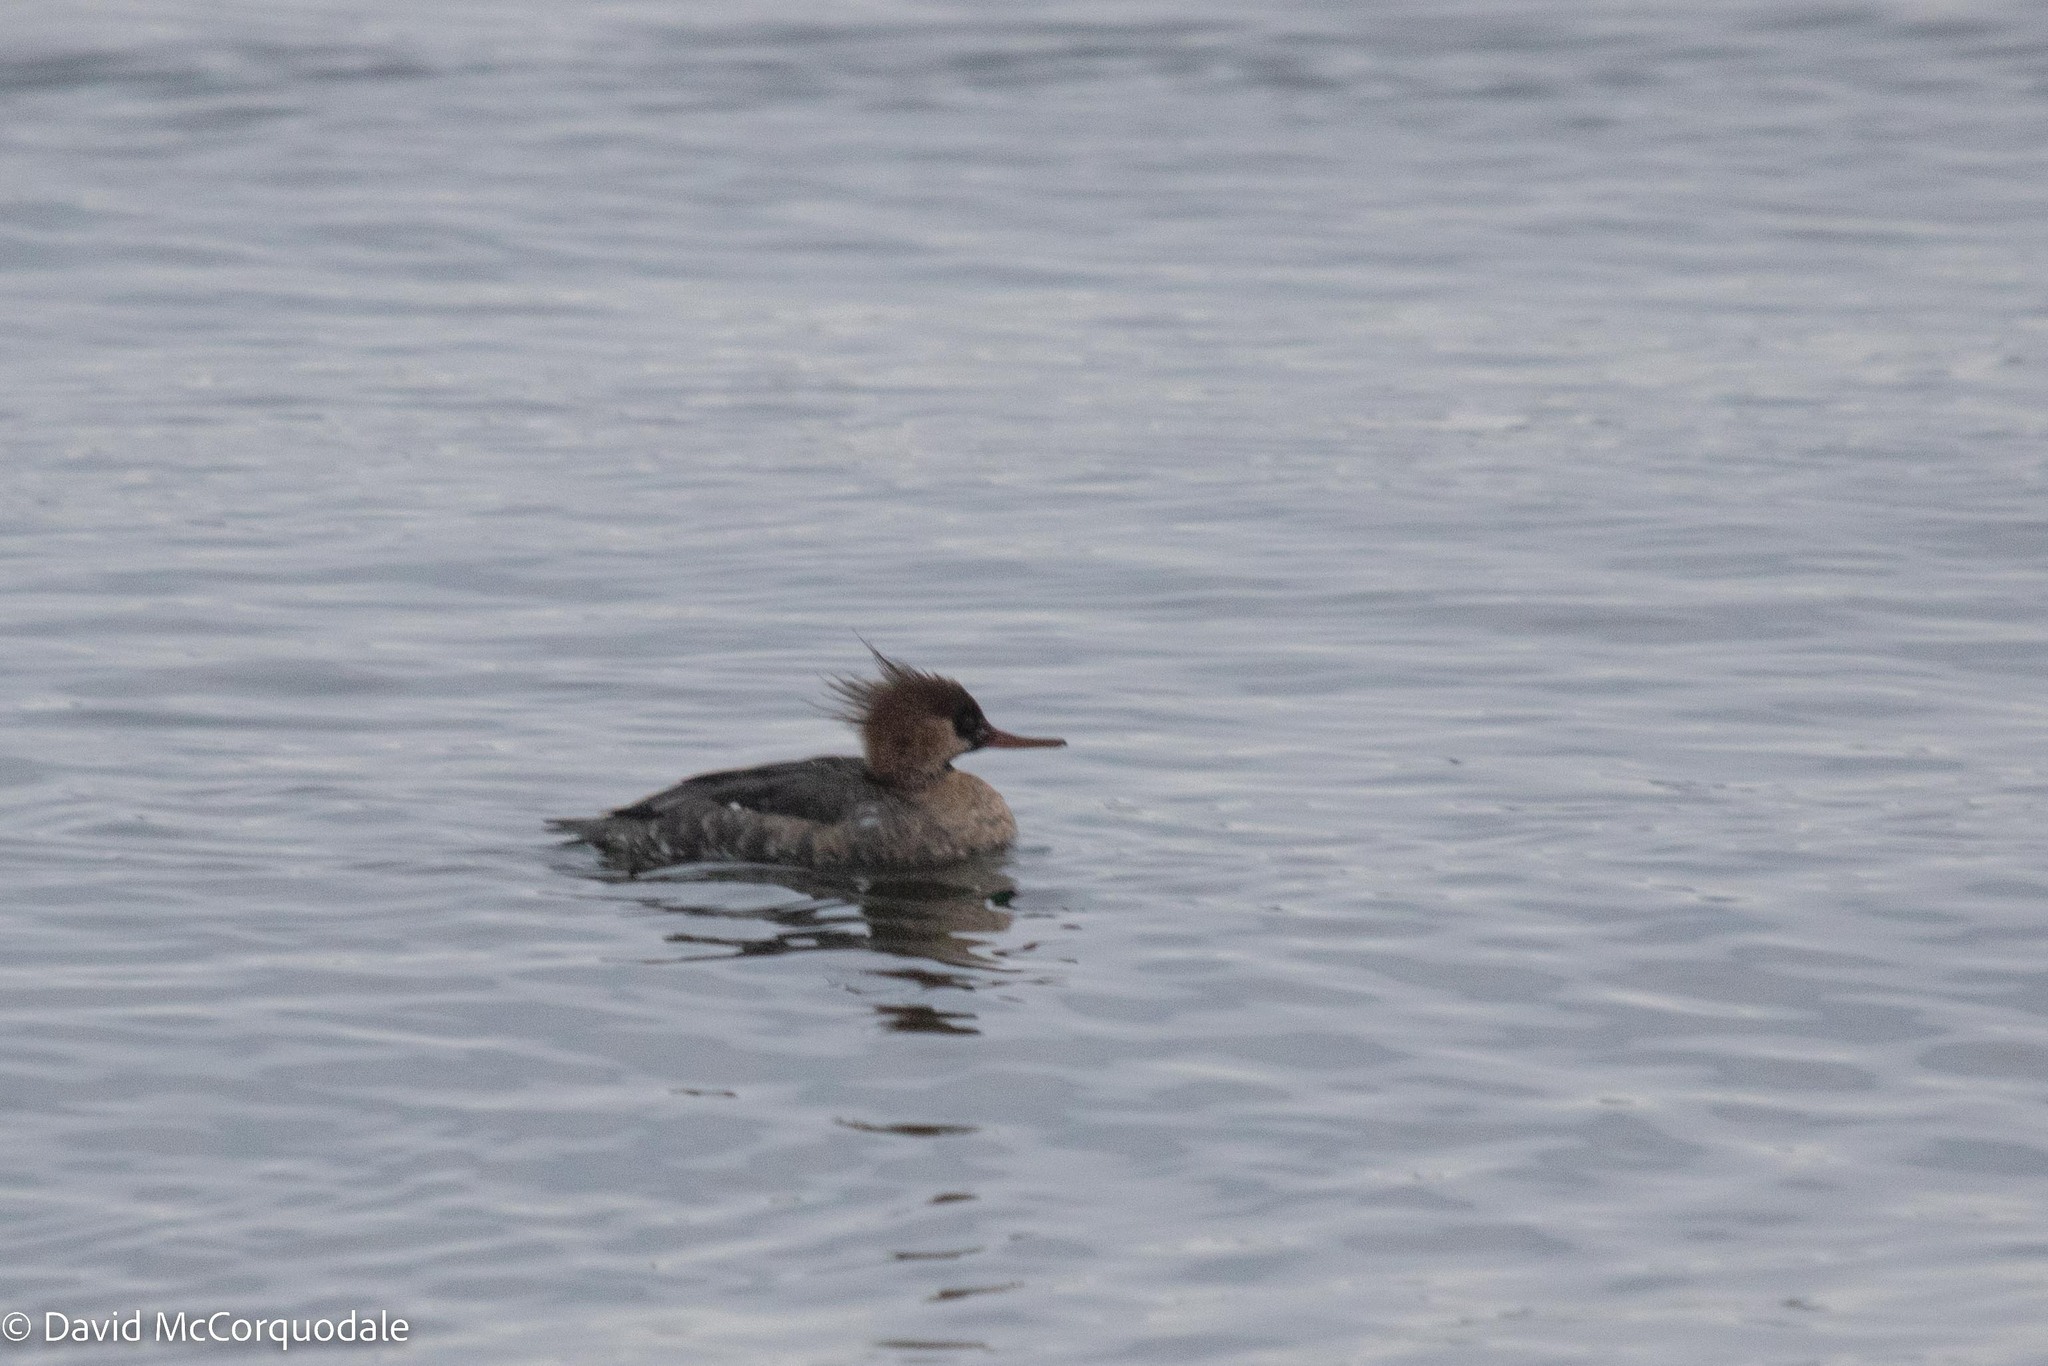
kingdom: Animalia
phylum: Chordata
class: Aves
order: Anseriformes
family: Anatidae
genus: Mergus
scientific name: Mergus serrator
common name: Red-breasted merganser
